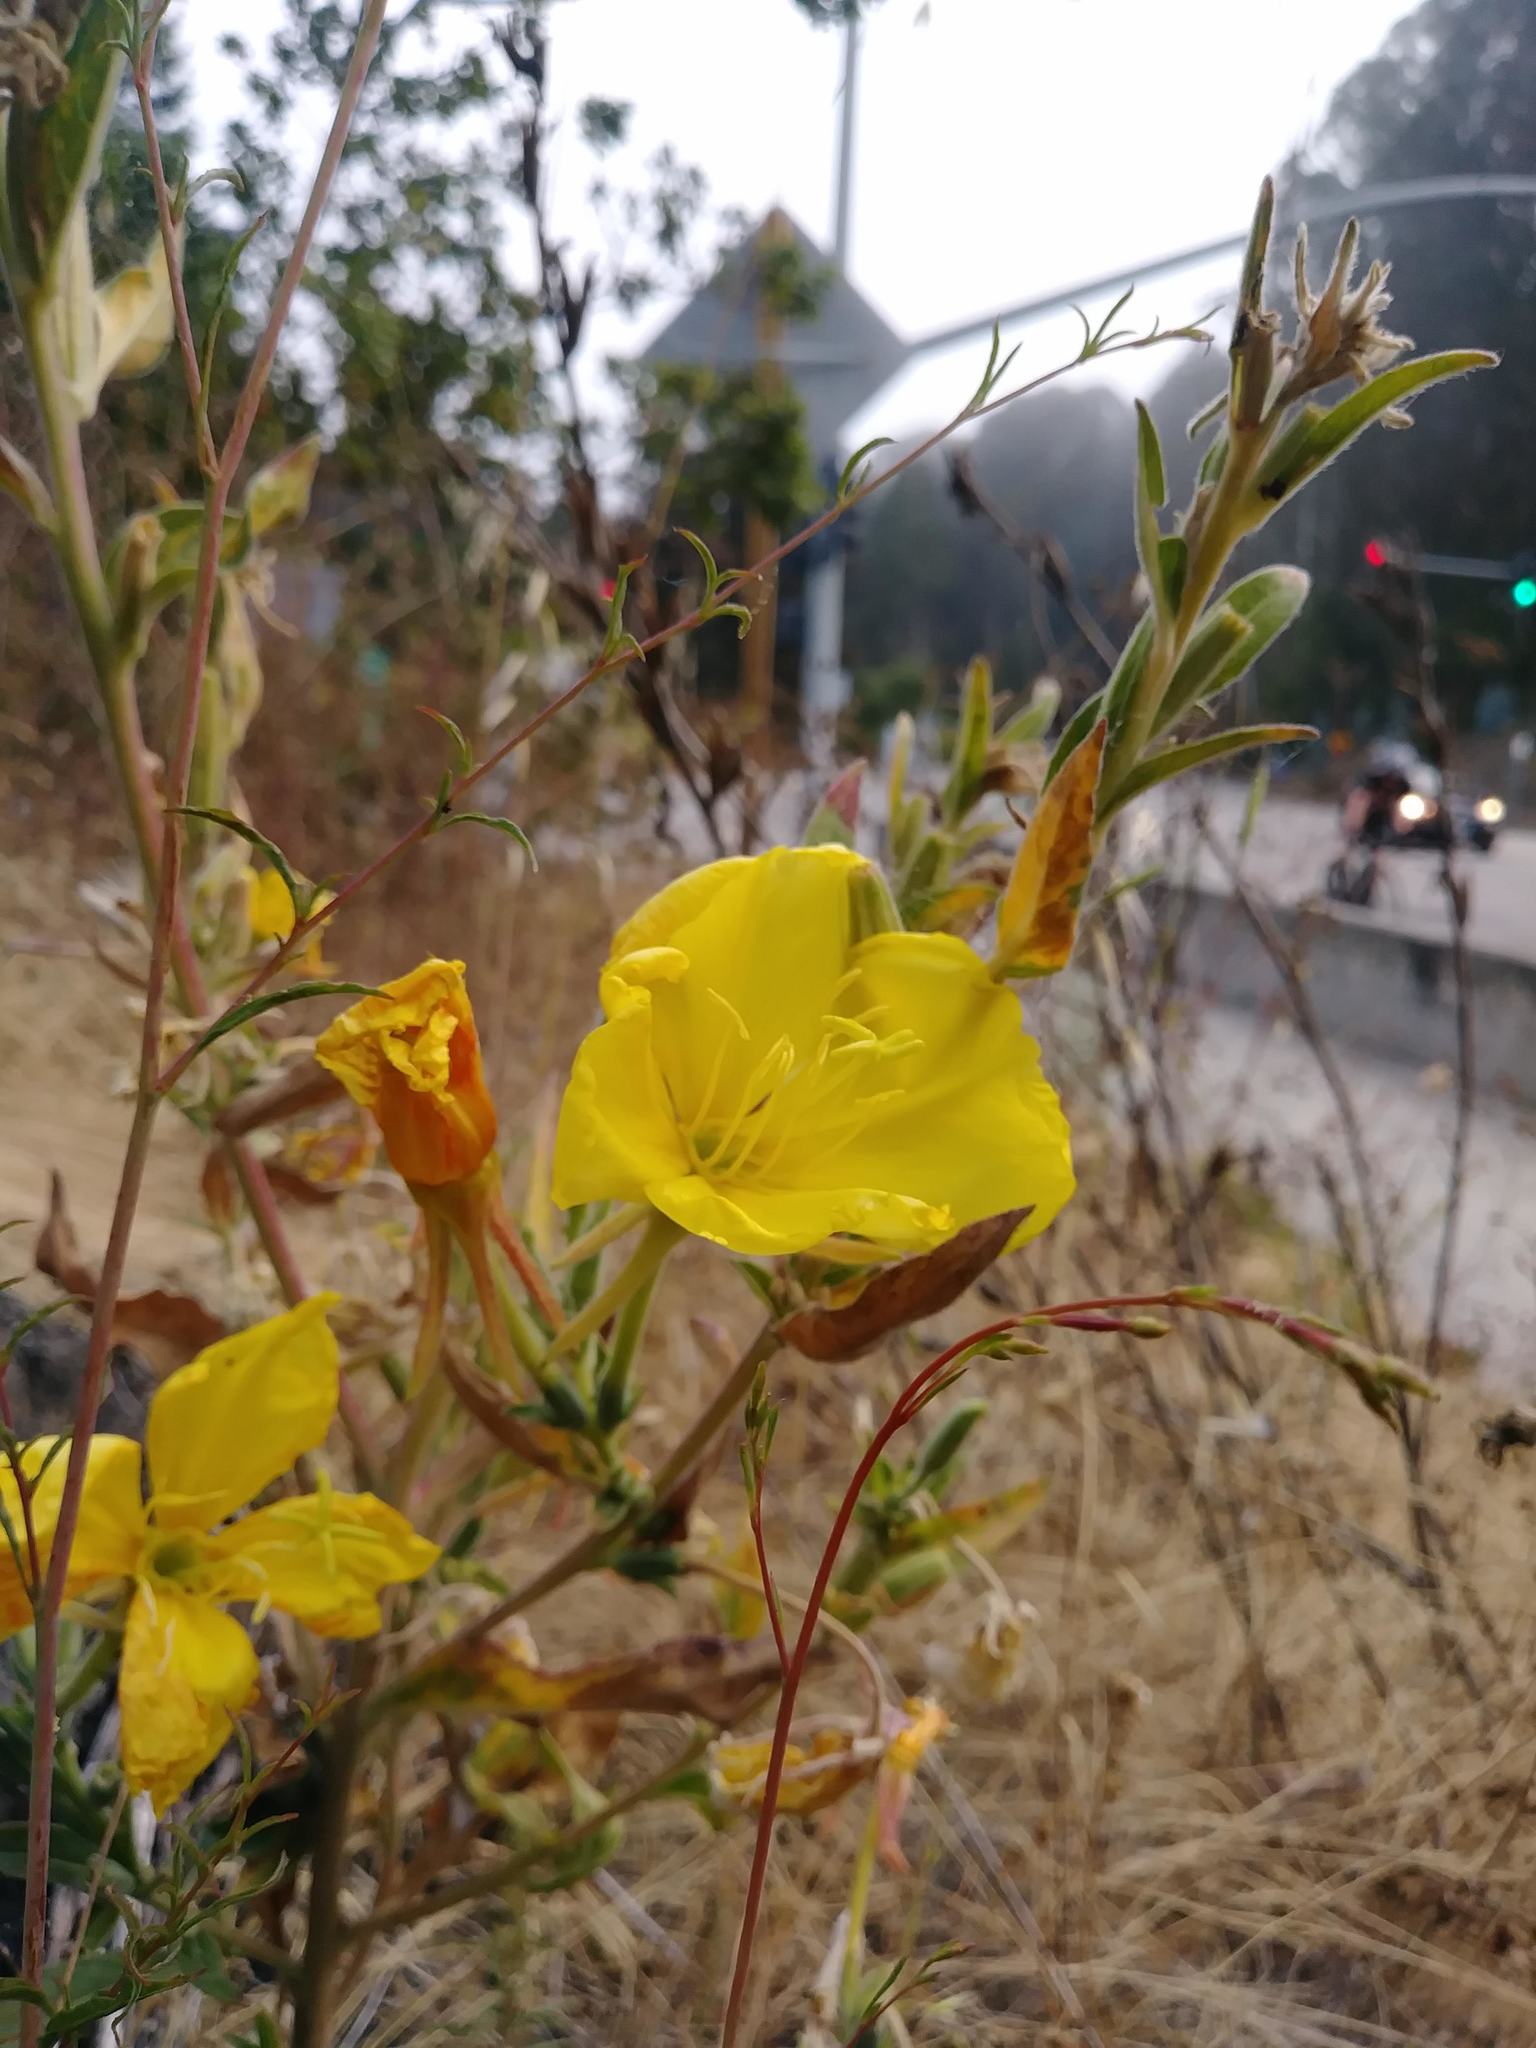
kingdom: Plantae
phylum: Tracheophyta
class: Magnoliopsida
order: Myrtales
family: Onagraceae
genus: Oenothera
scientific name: Oenothera elata
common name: Hooker's evening-primrose
